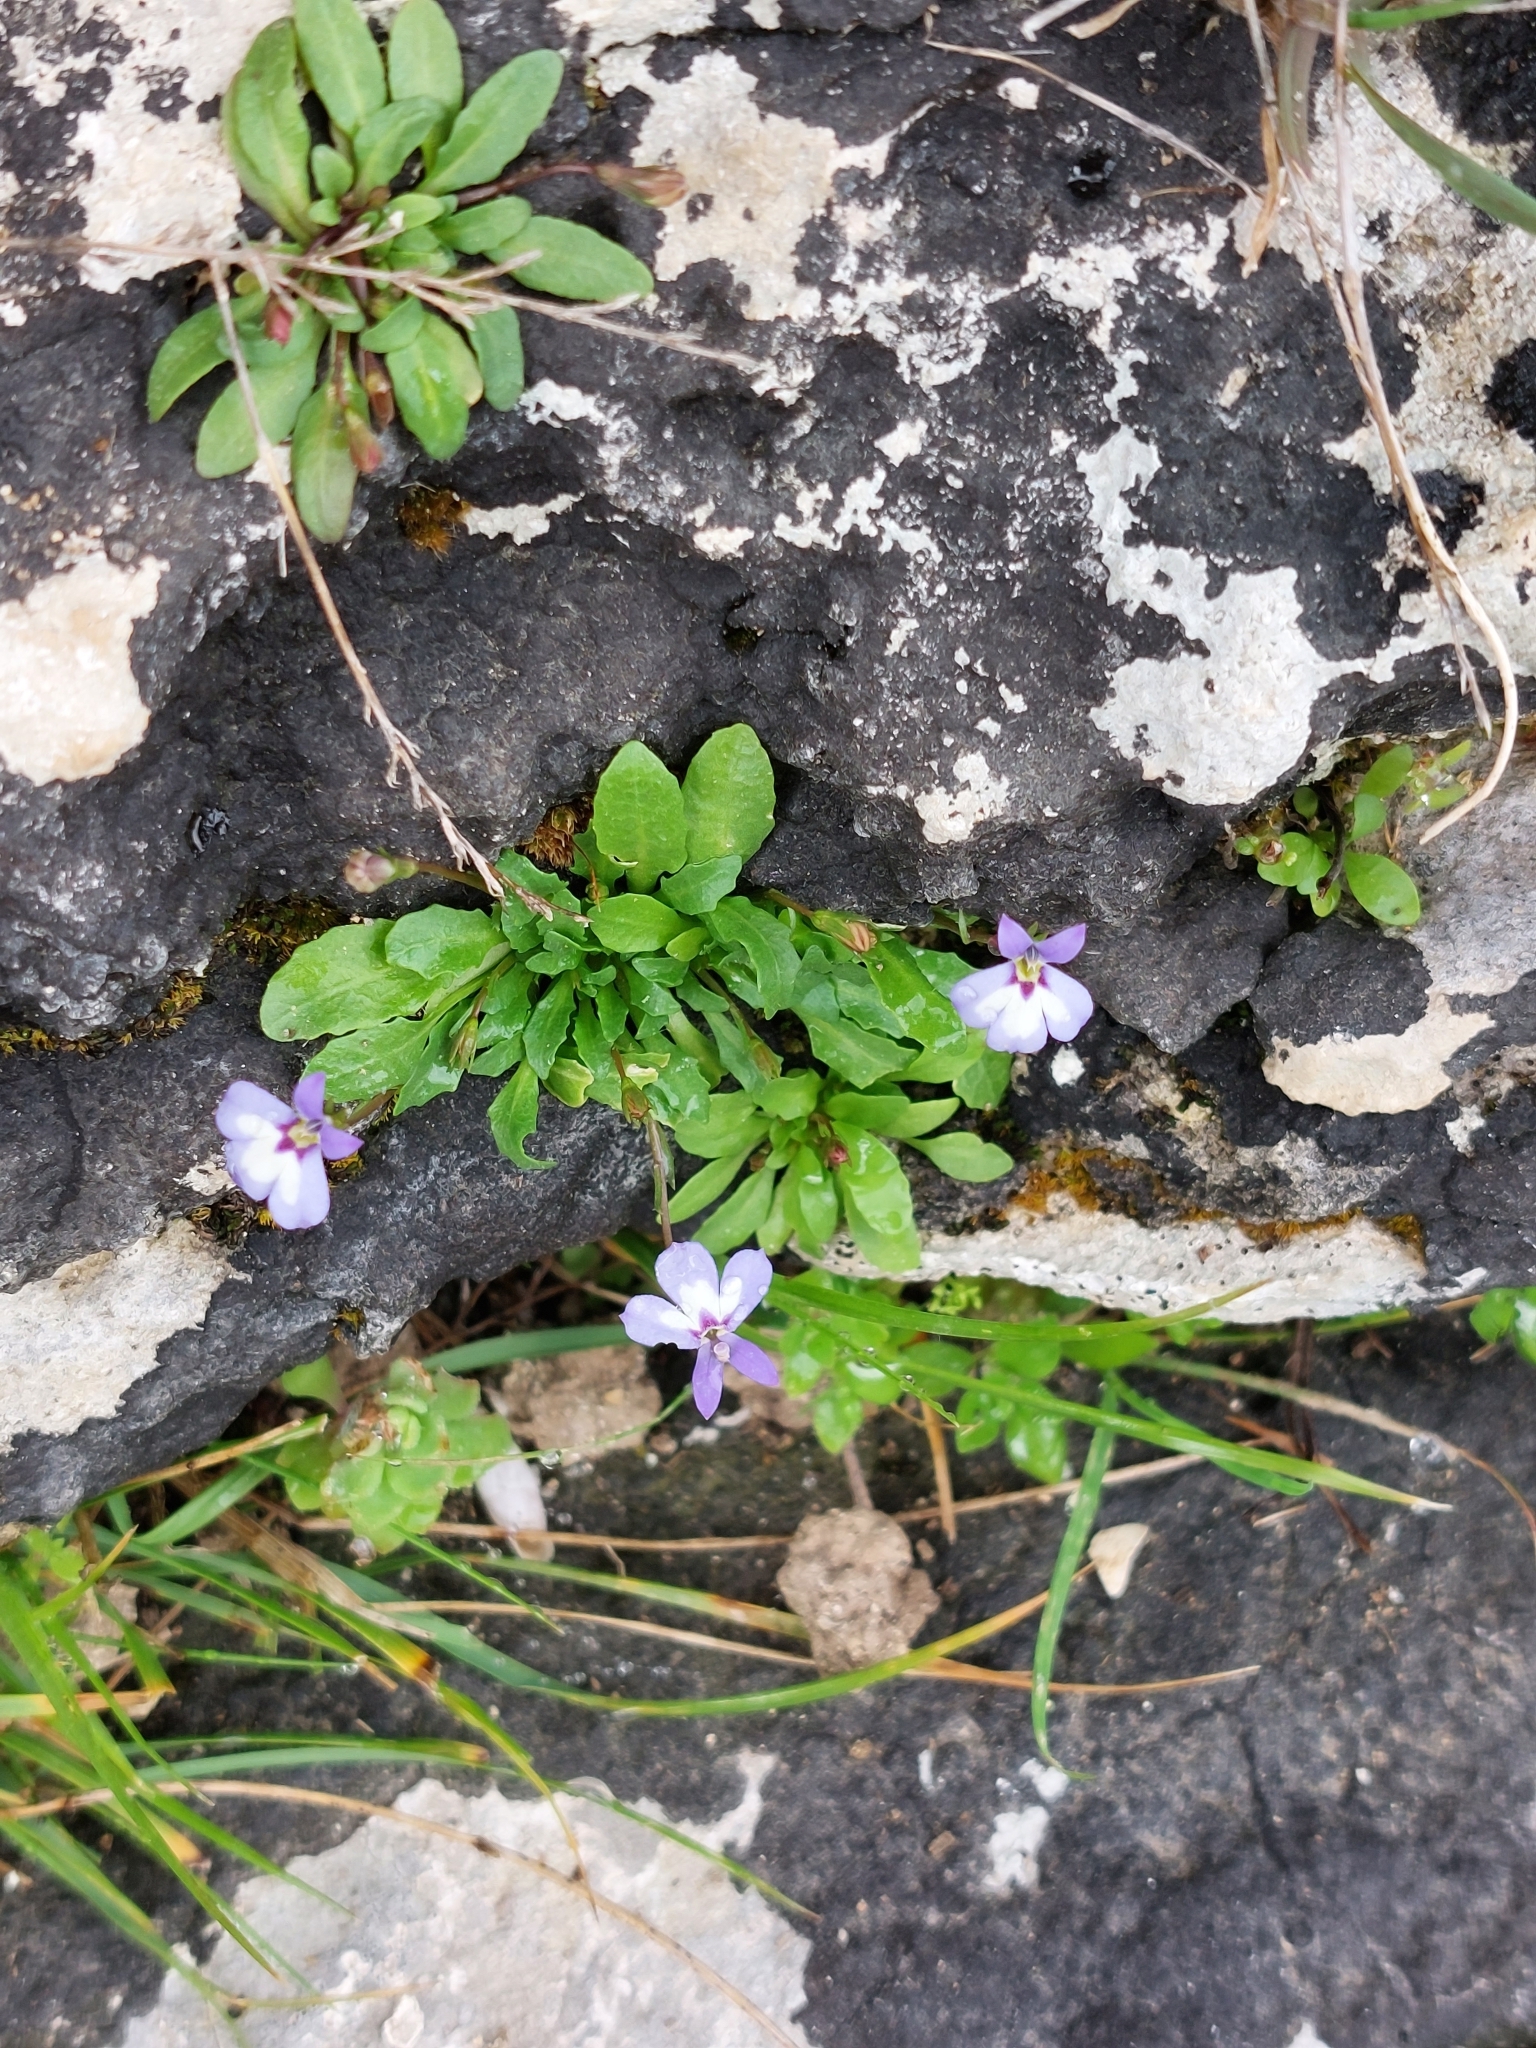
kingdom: Plantae
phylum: Tracheophyta
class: Magnoliopsida
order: Asterales
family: Campanulaceae
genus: Solenopsis
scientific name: Solenopsis minuta
